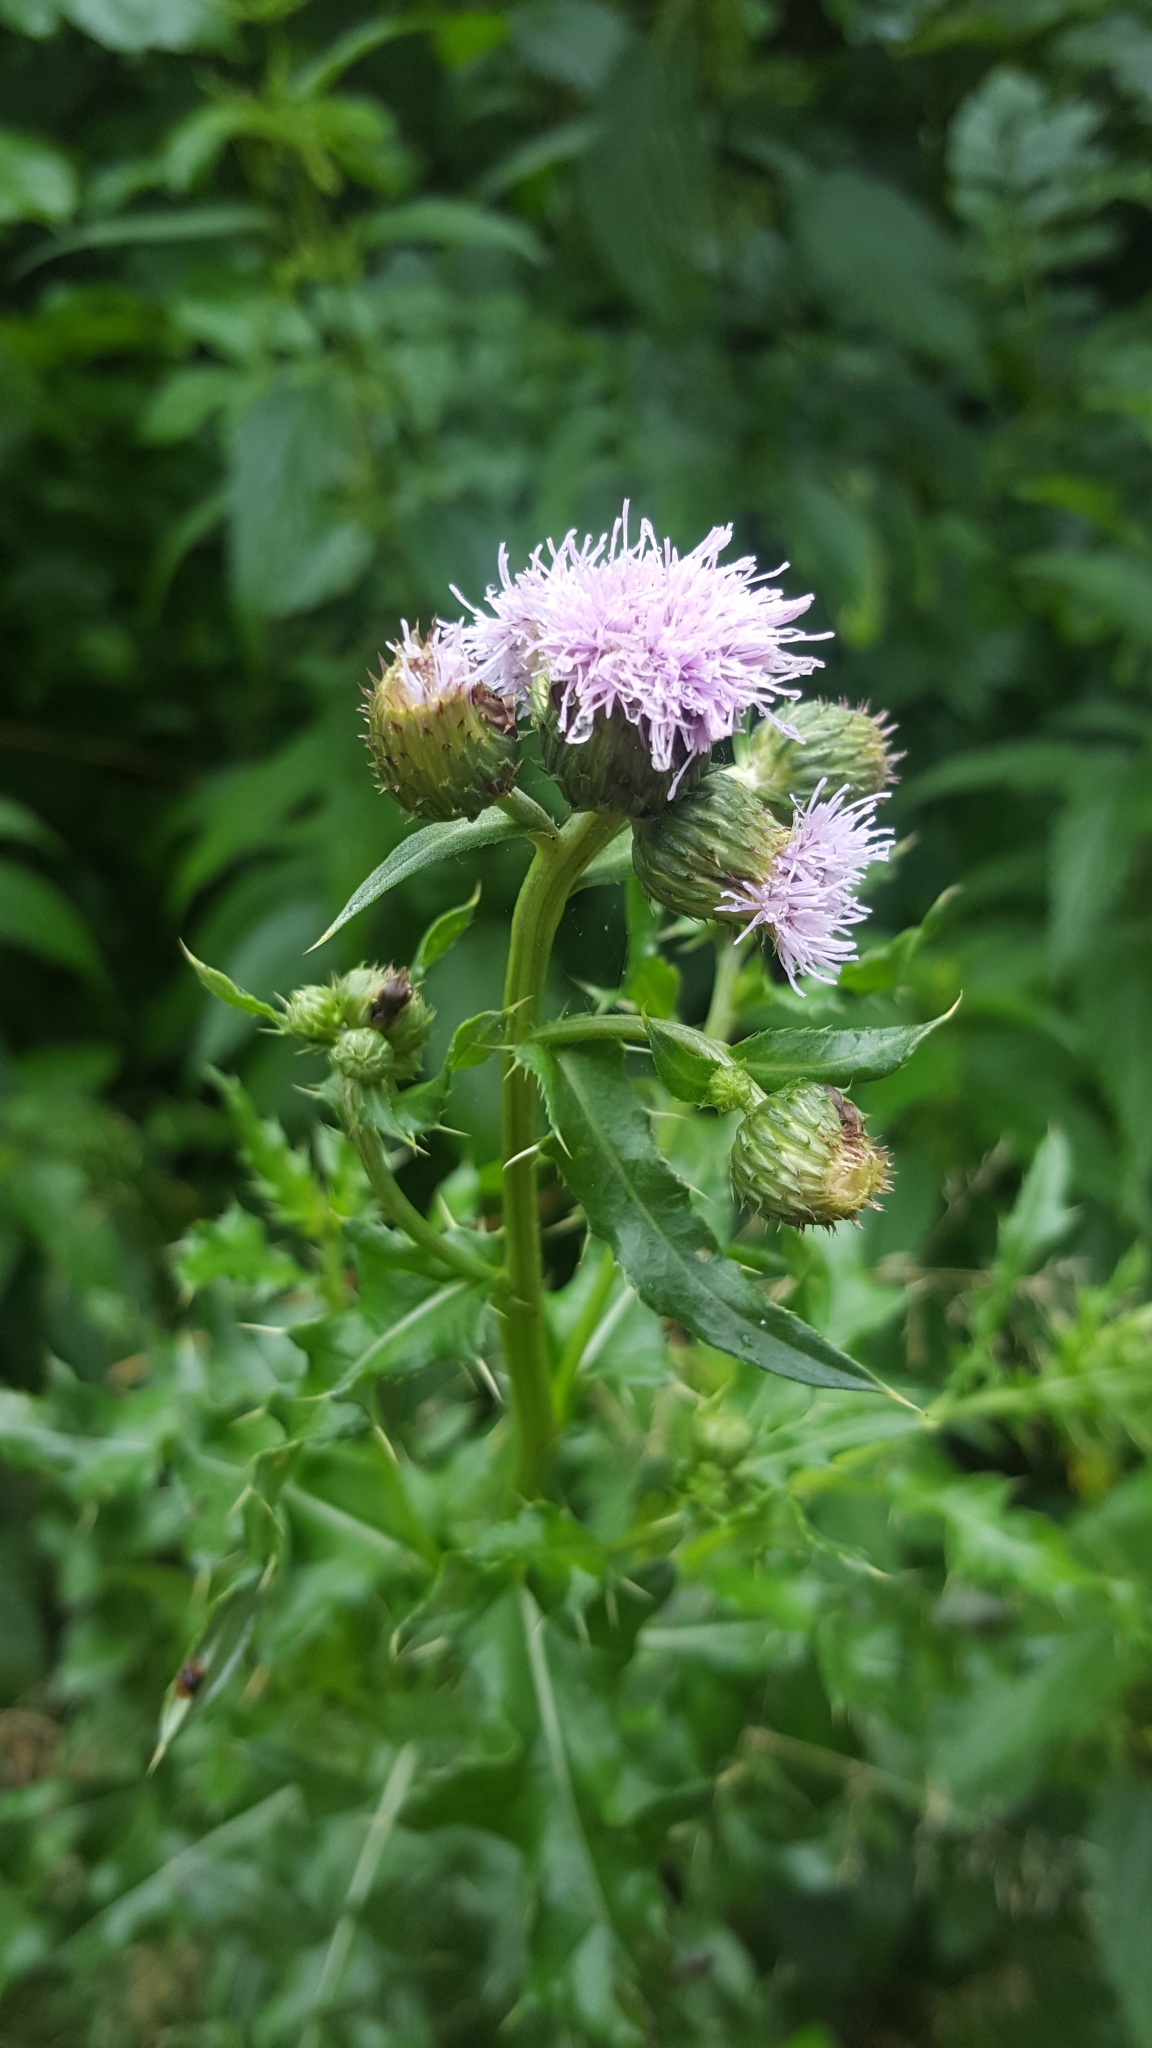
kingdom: Plantae
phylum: Tracheophyta
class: Magnoliopsida
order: Asterales
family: Asteraceae
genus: Cirsium
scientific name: Cirsium arvense
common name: Creeping thistle
